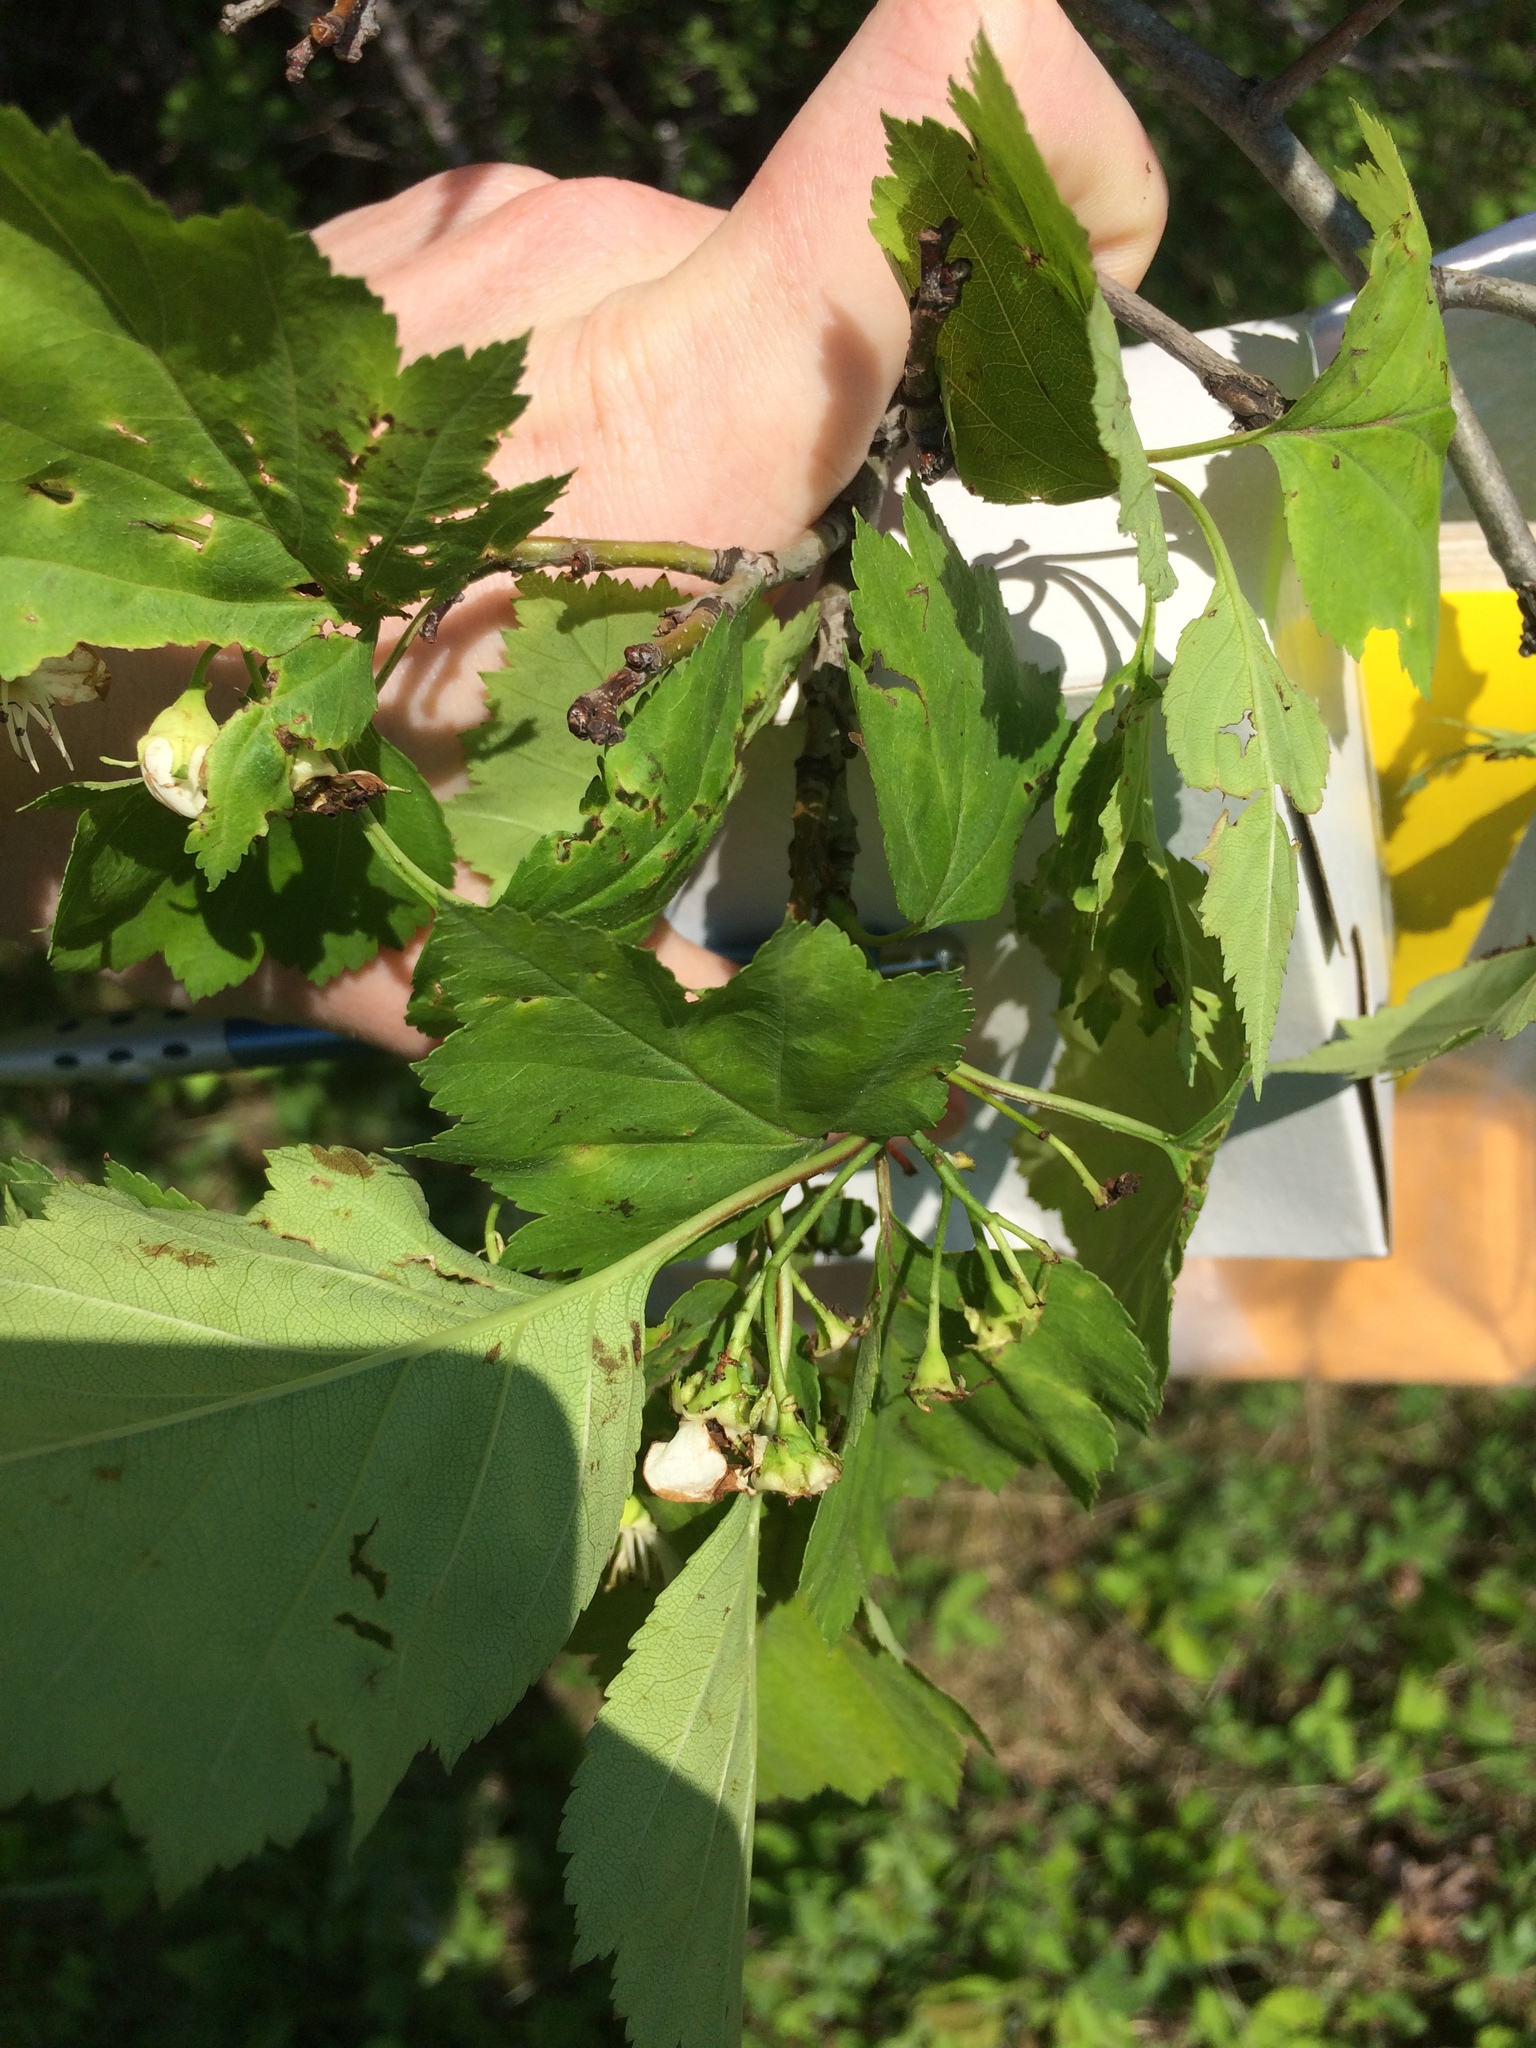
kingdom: Plantae
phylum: Tracheophyta
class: Magnoliopsida
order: Rosales
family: Rosaceae
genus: Crataegus
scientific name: Crataegus schuettei
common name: Schuette's hawthorn
